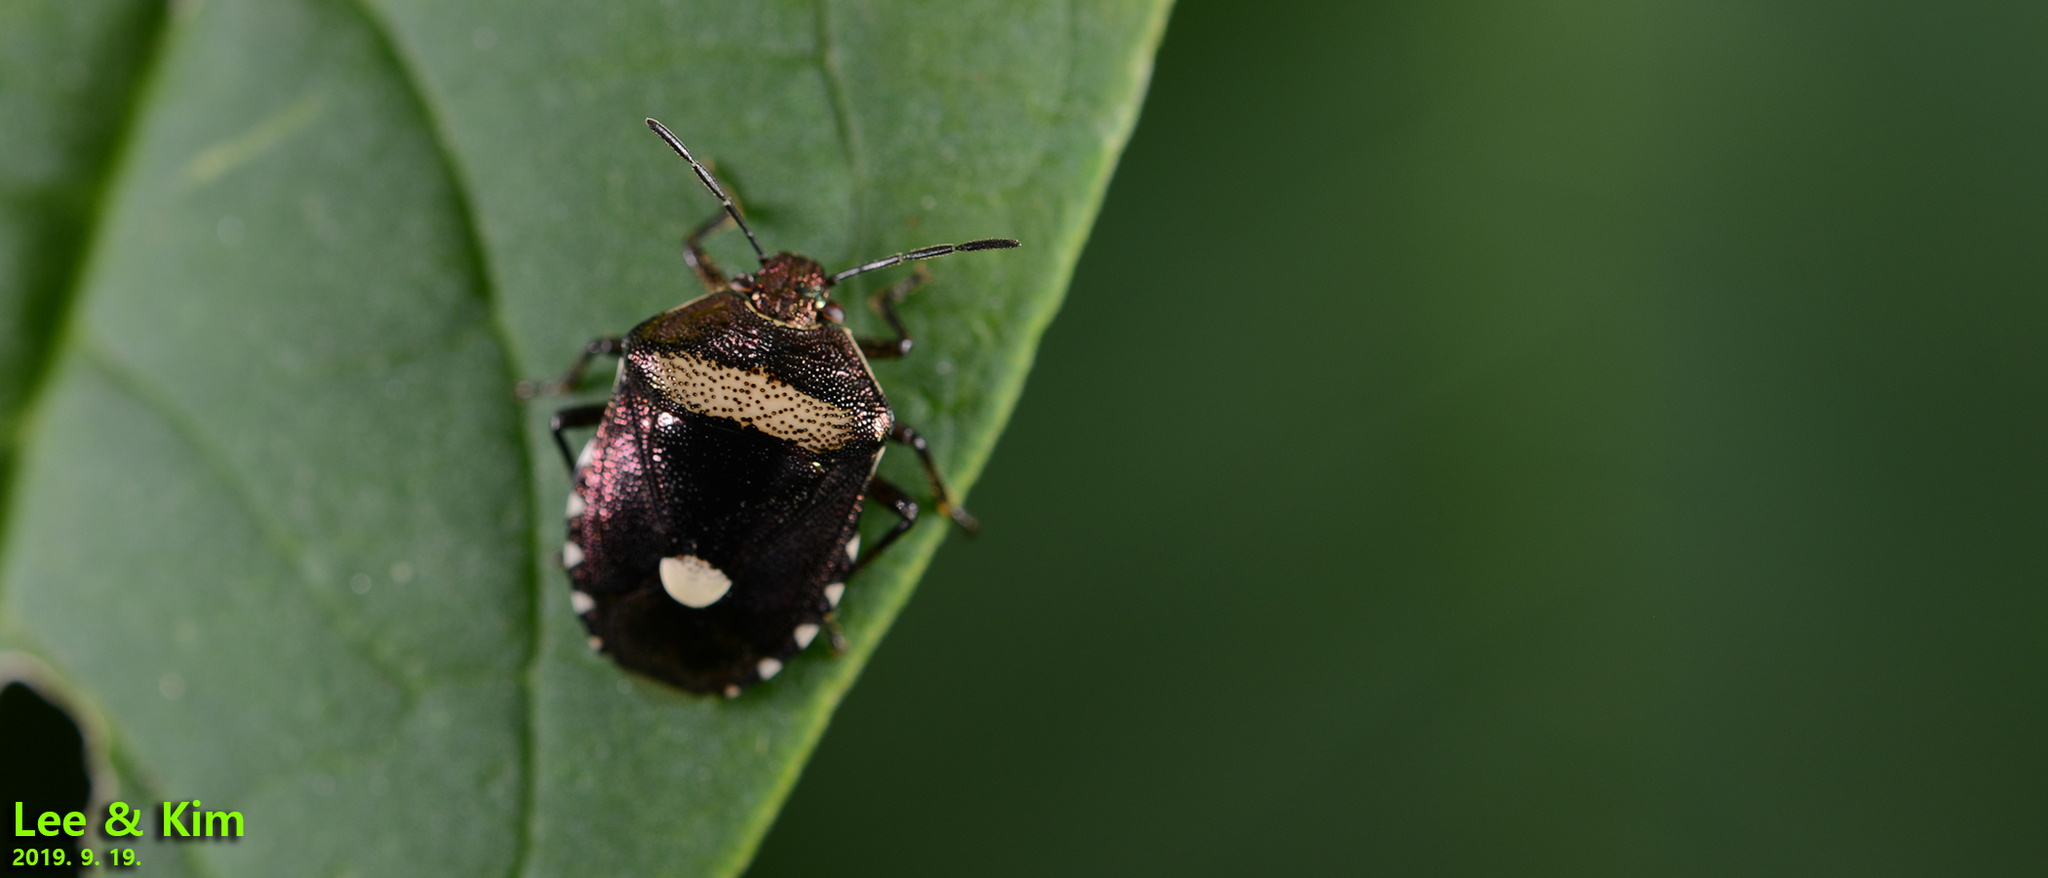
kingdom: Animalia
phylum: Arthropoda
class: Insecta
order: Hemiptera
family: Pentatomidae
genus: Menida
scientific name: Menida violacea
